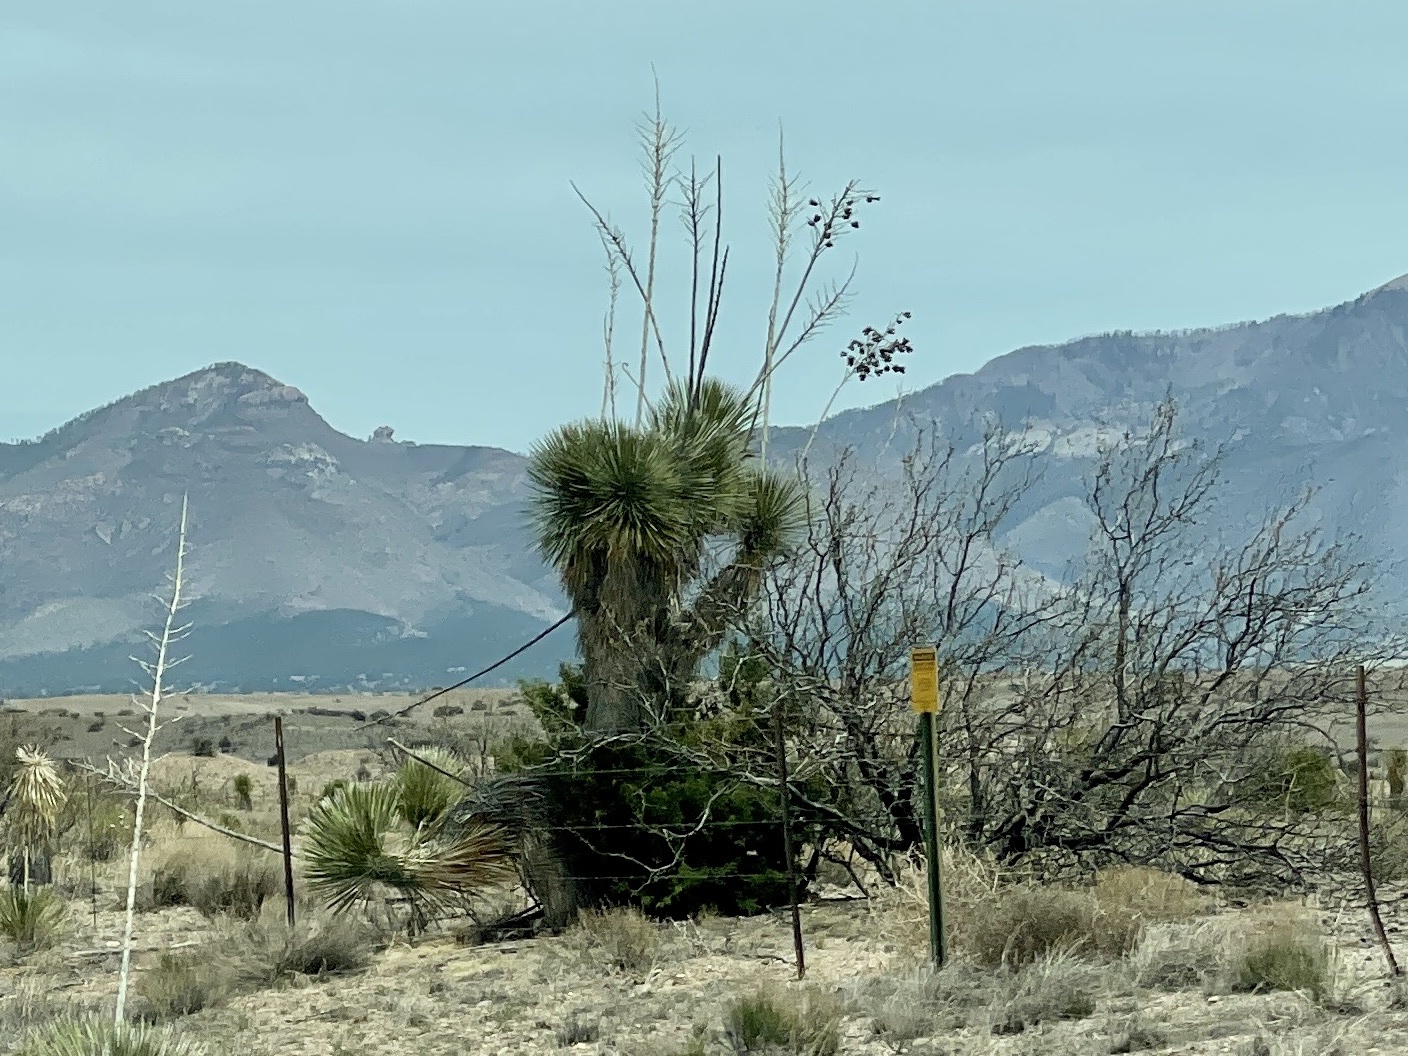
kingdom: Plantae
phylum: Tracheophyta
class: Liliopsida
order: Asparagales
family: Asparagaceae
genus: Yucca
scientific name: Yucca elata
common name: Palmella
